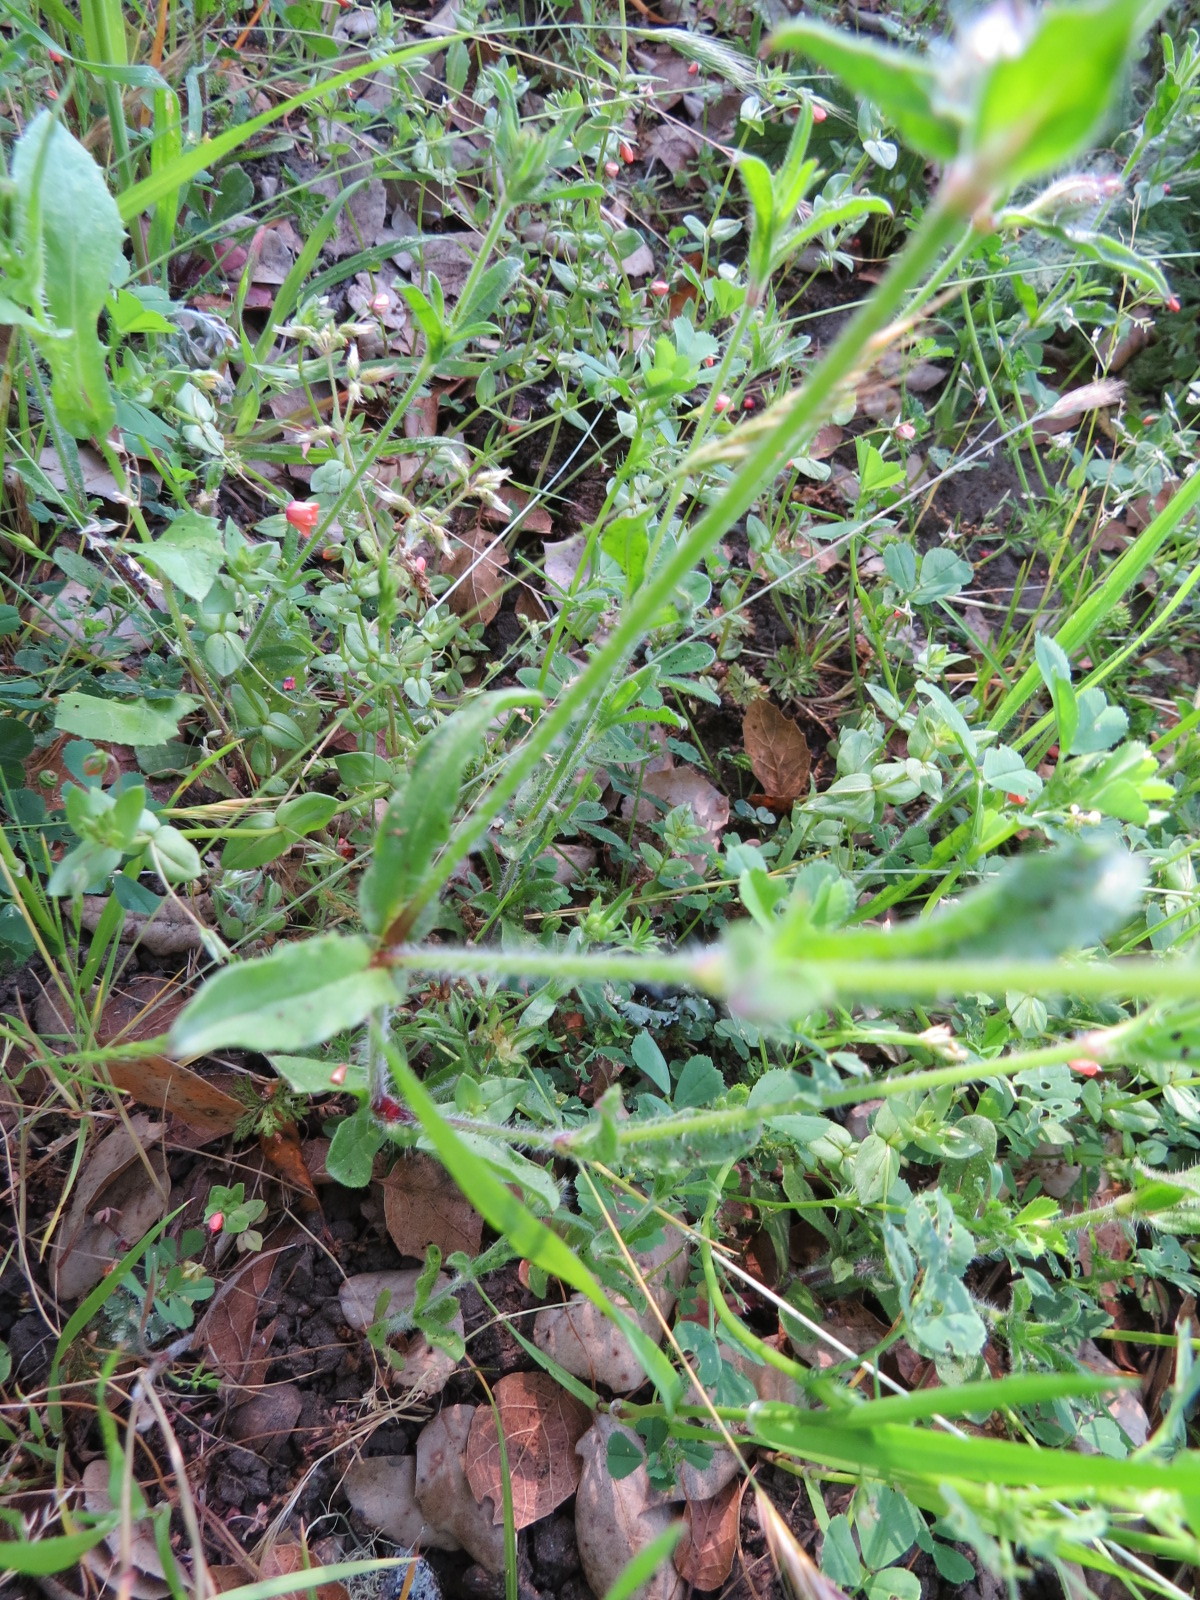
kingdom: Plantae
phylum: Tracheophyta
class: Magnoliopsida
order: Caryophyllales
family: Caryophyllaceae
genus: Silene
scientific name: Silene gallica
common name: Small-flowered catchfly
